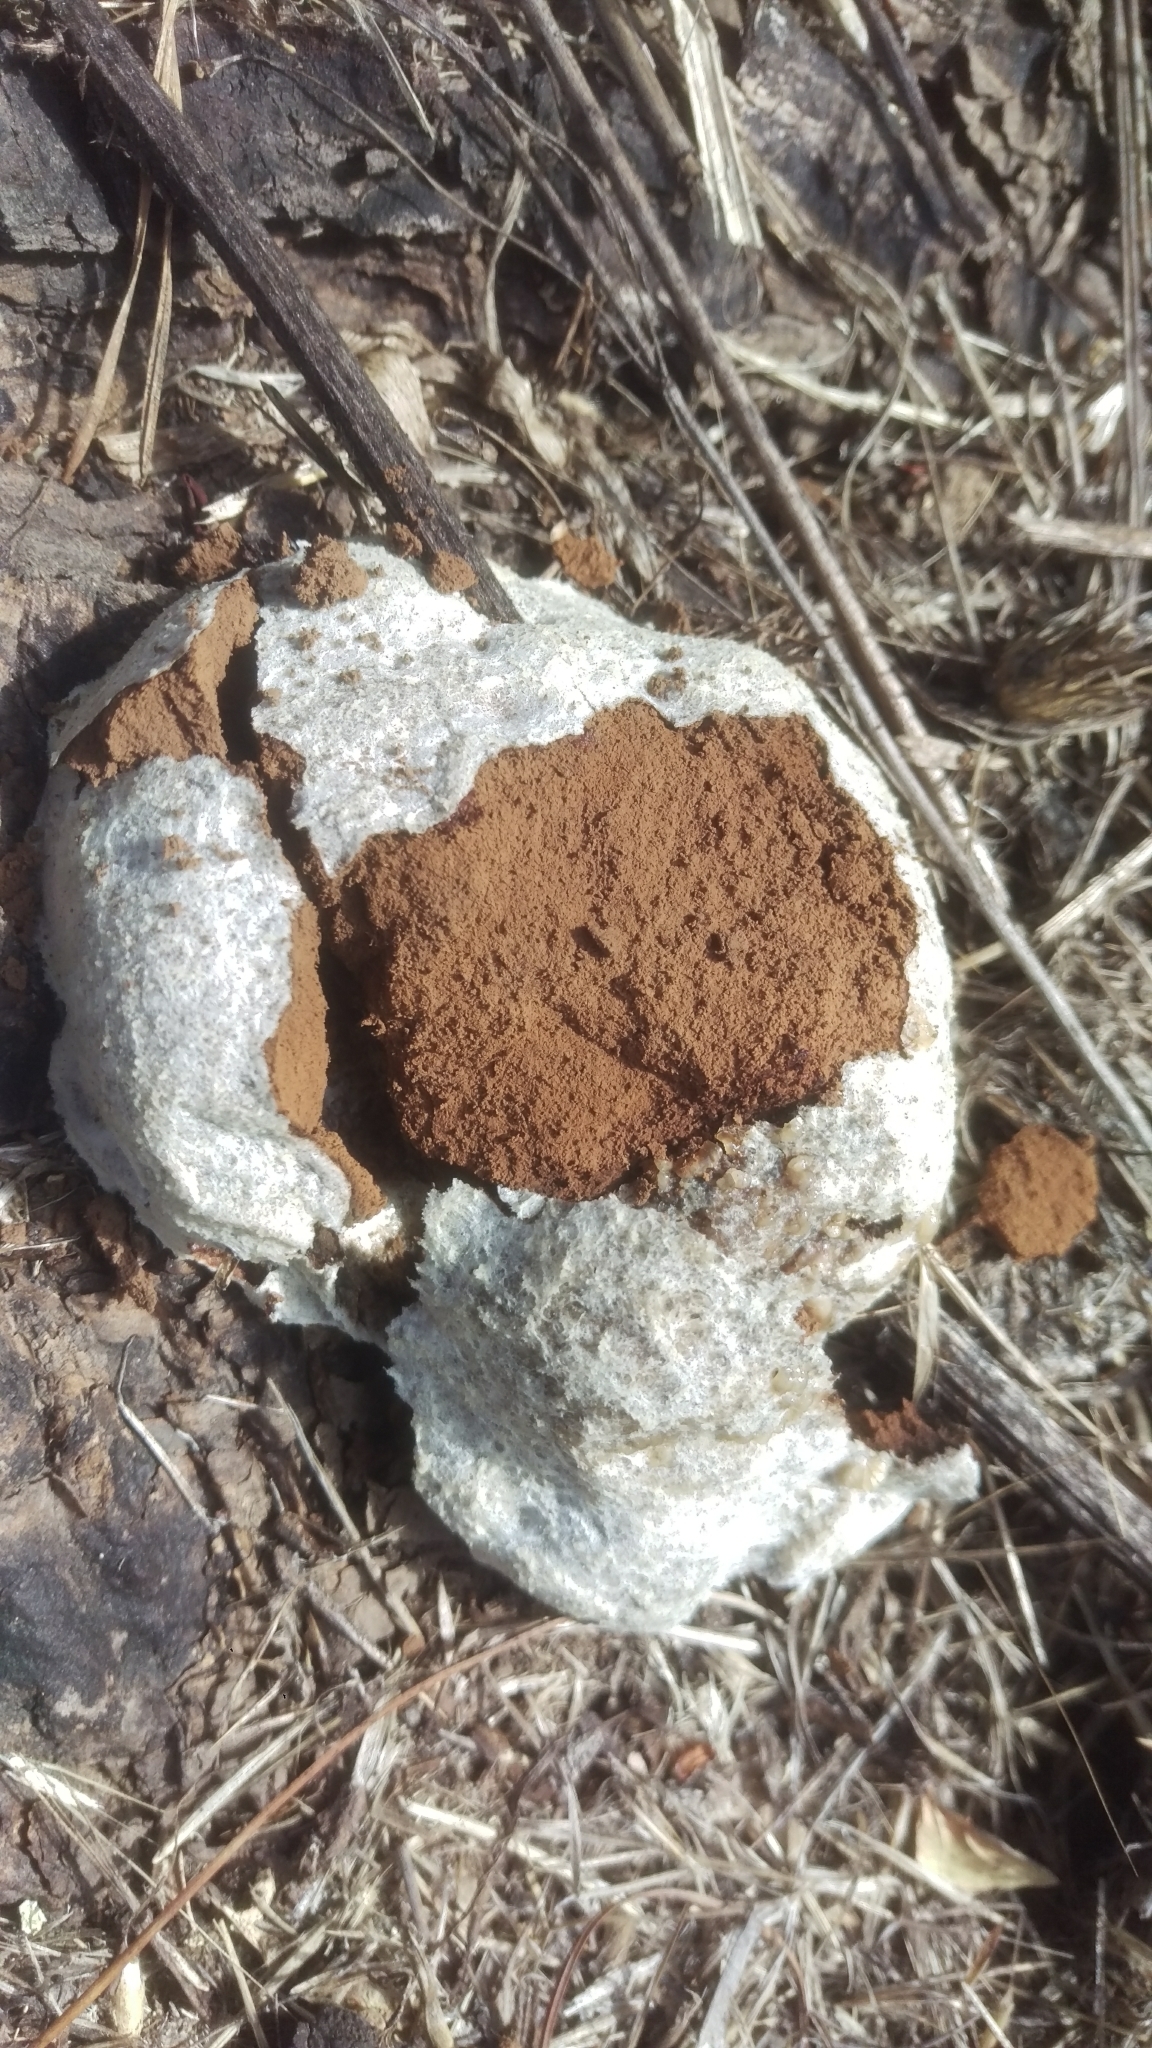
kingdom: Protozoa
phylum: Mycetozoa
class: Myxomycetes
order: Cribrariales
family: Tubiferaceae
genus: Reticularia
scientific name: Reticularia lycoperdon
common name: False puffball
